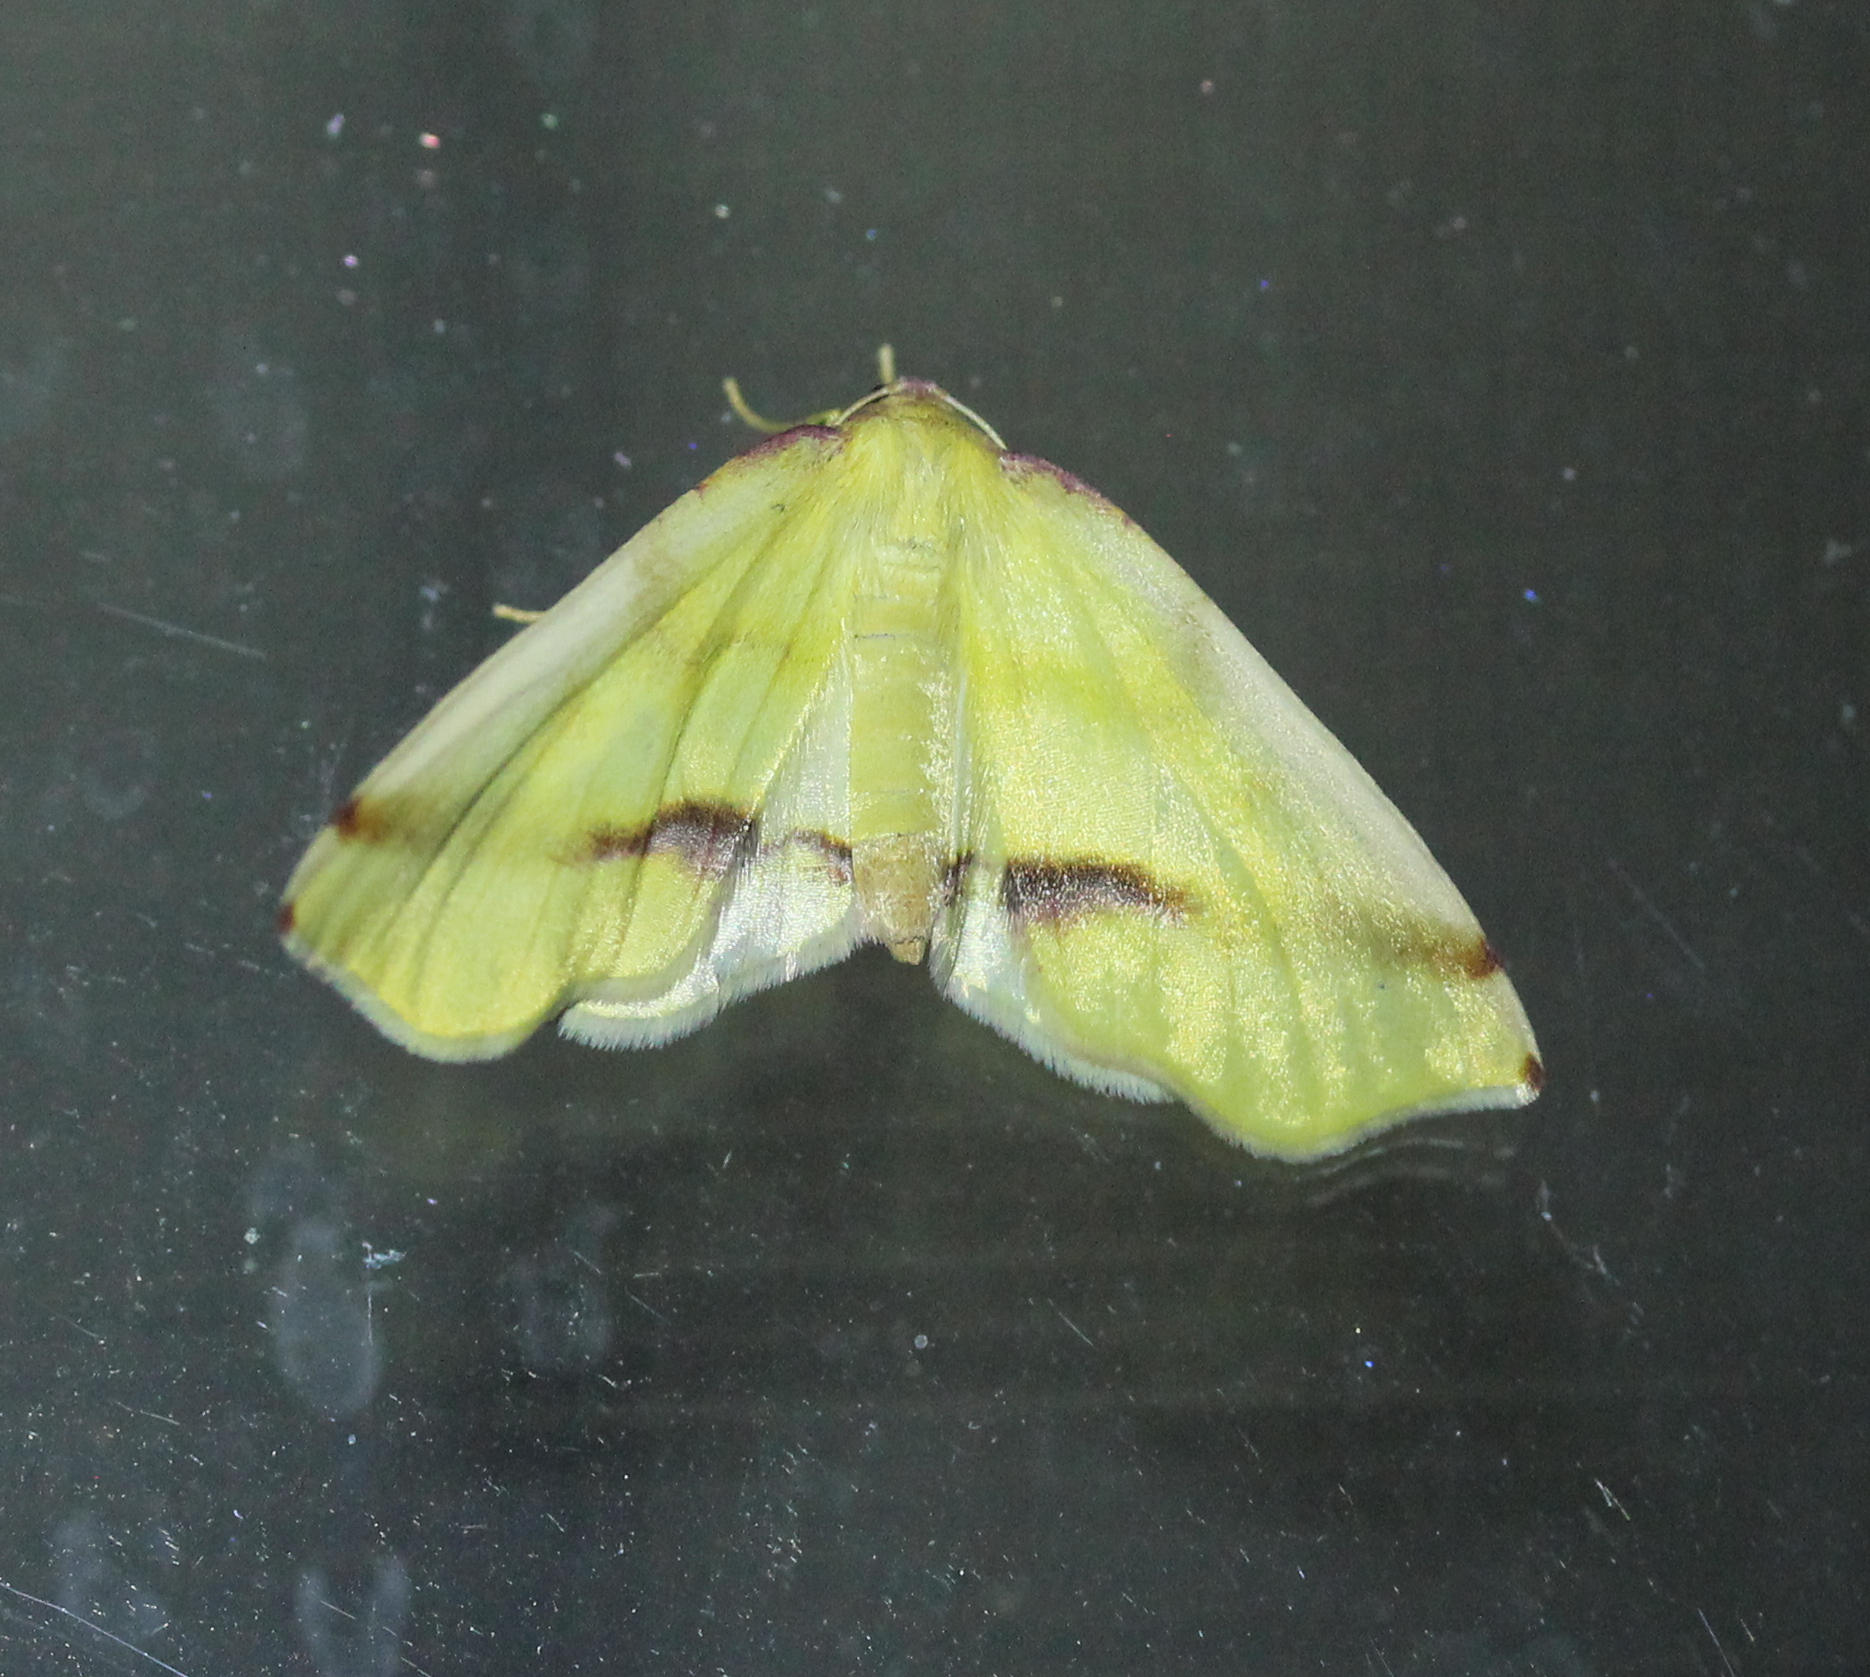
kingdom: Animalia
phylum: Arthropoda
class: Insecta
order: Lepidoptera
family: Geometridae
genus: Plagodis
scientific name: Plagodis serinaria
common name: Lemon plagodis
